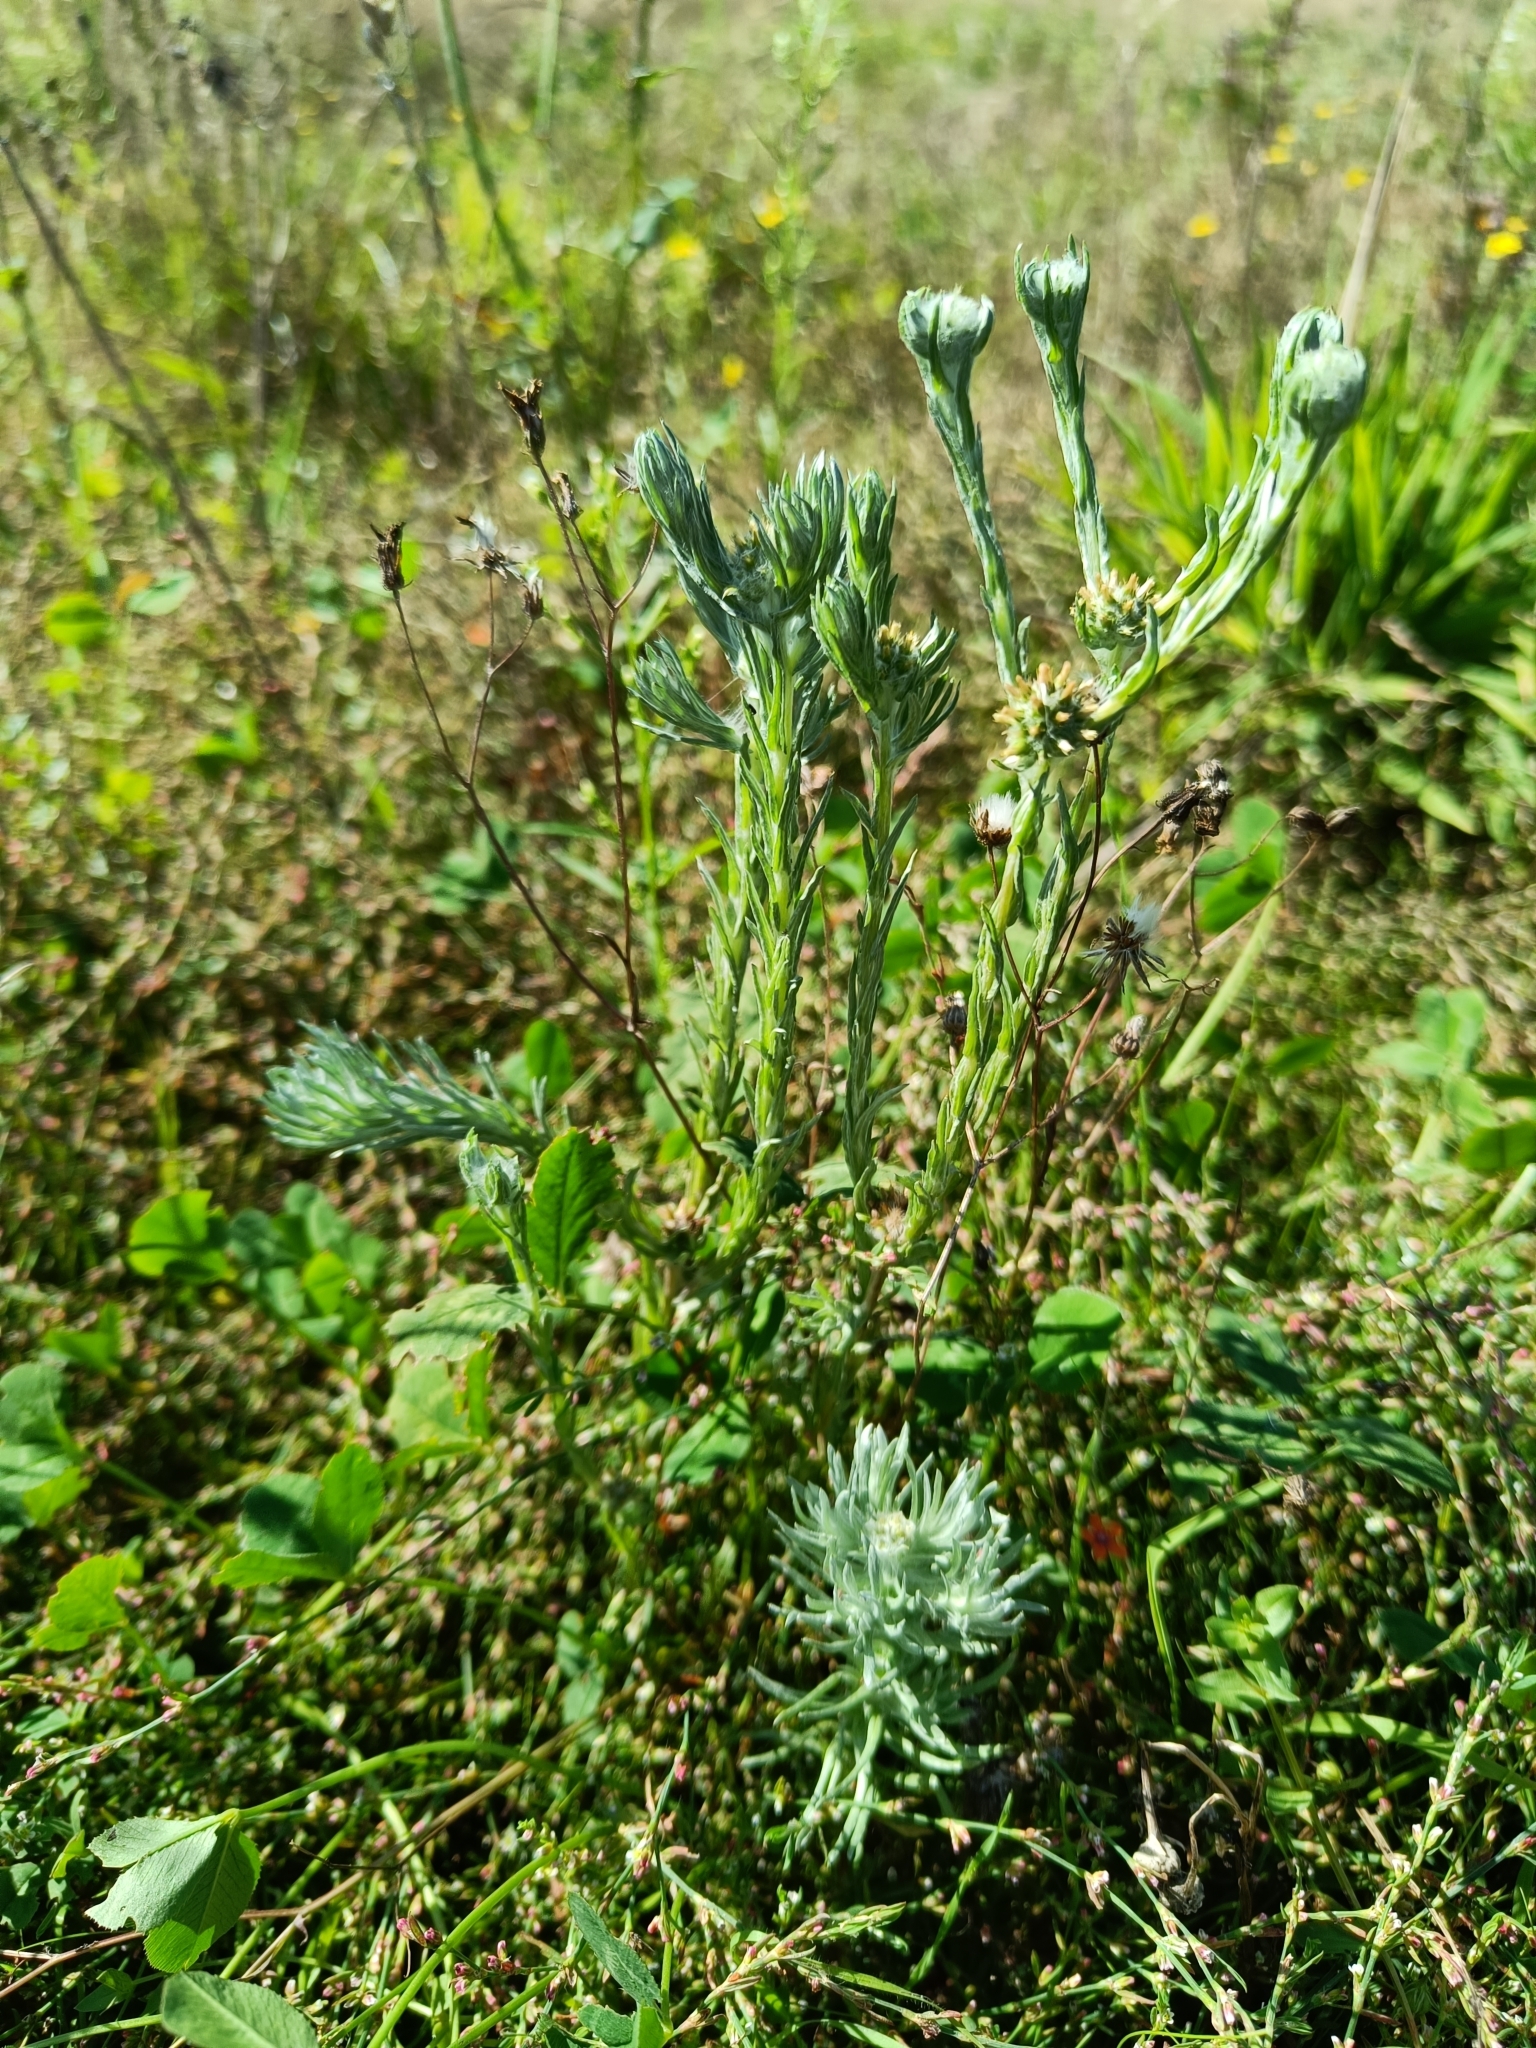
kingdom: Plantae
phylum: Tracheophyta
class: Magnoliopsida
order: Asterales
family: Asteraceae
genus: Filago
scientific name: Filago germanica
